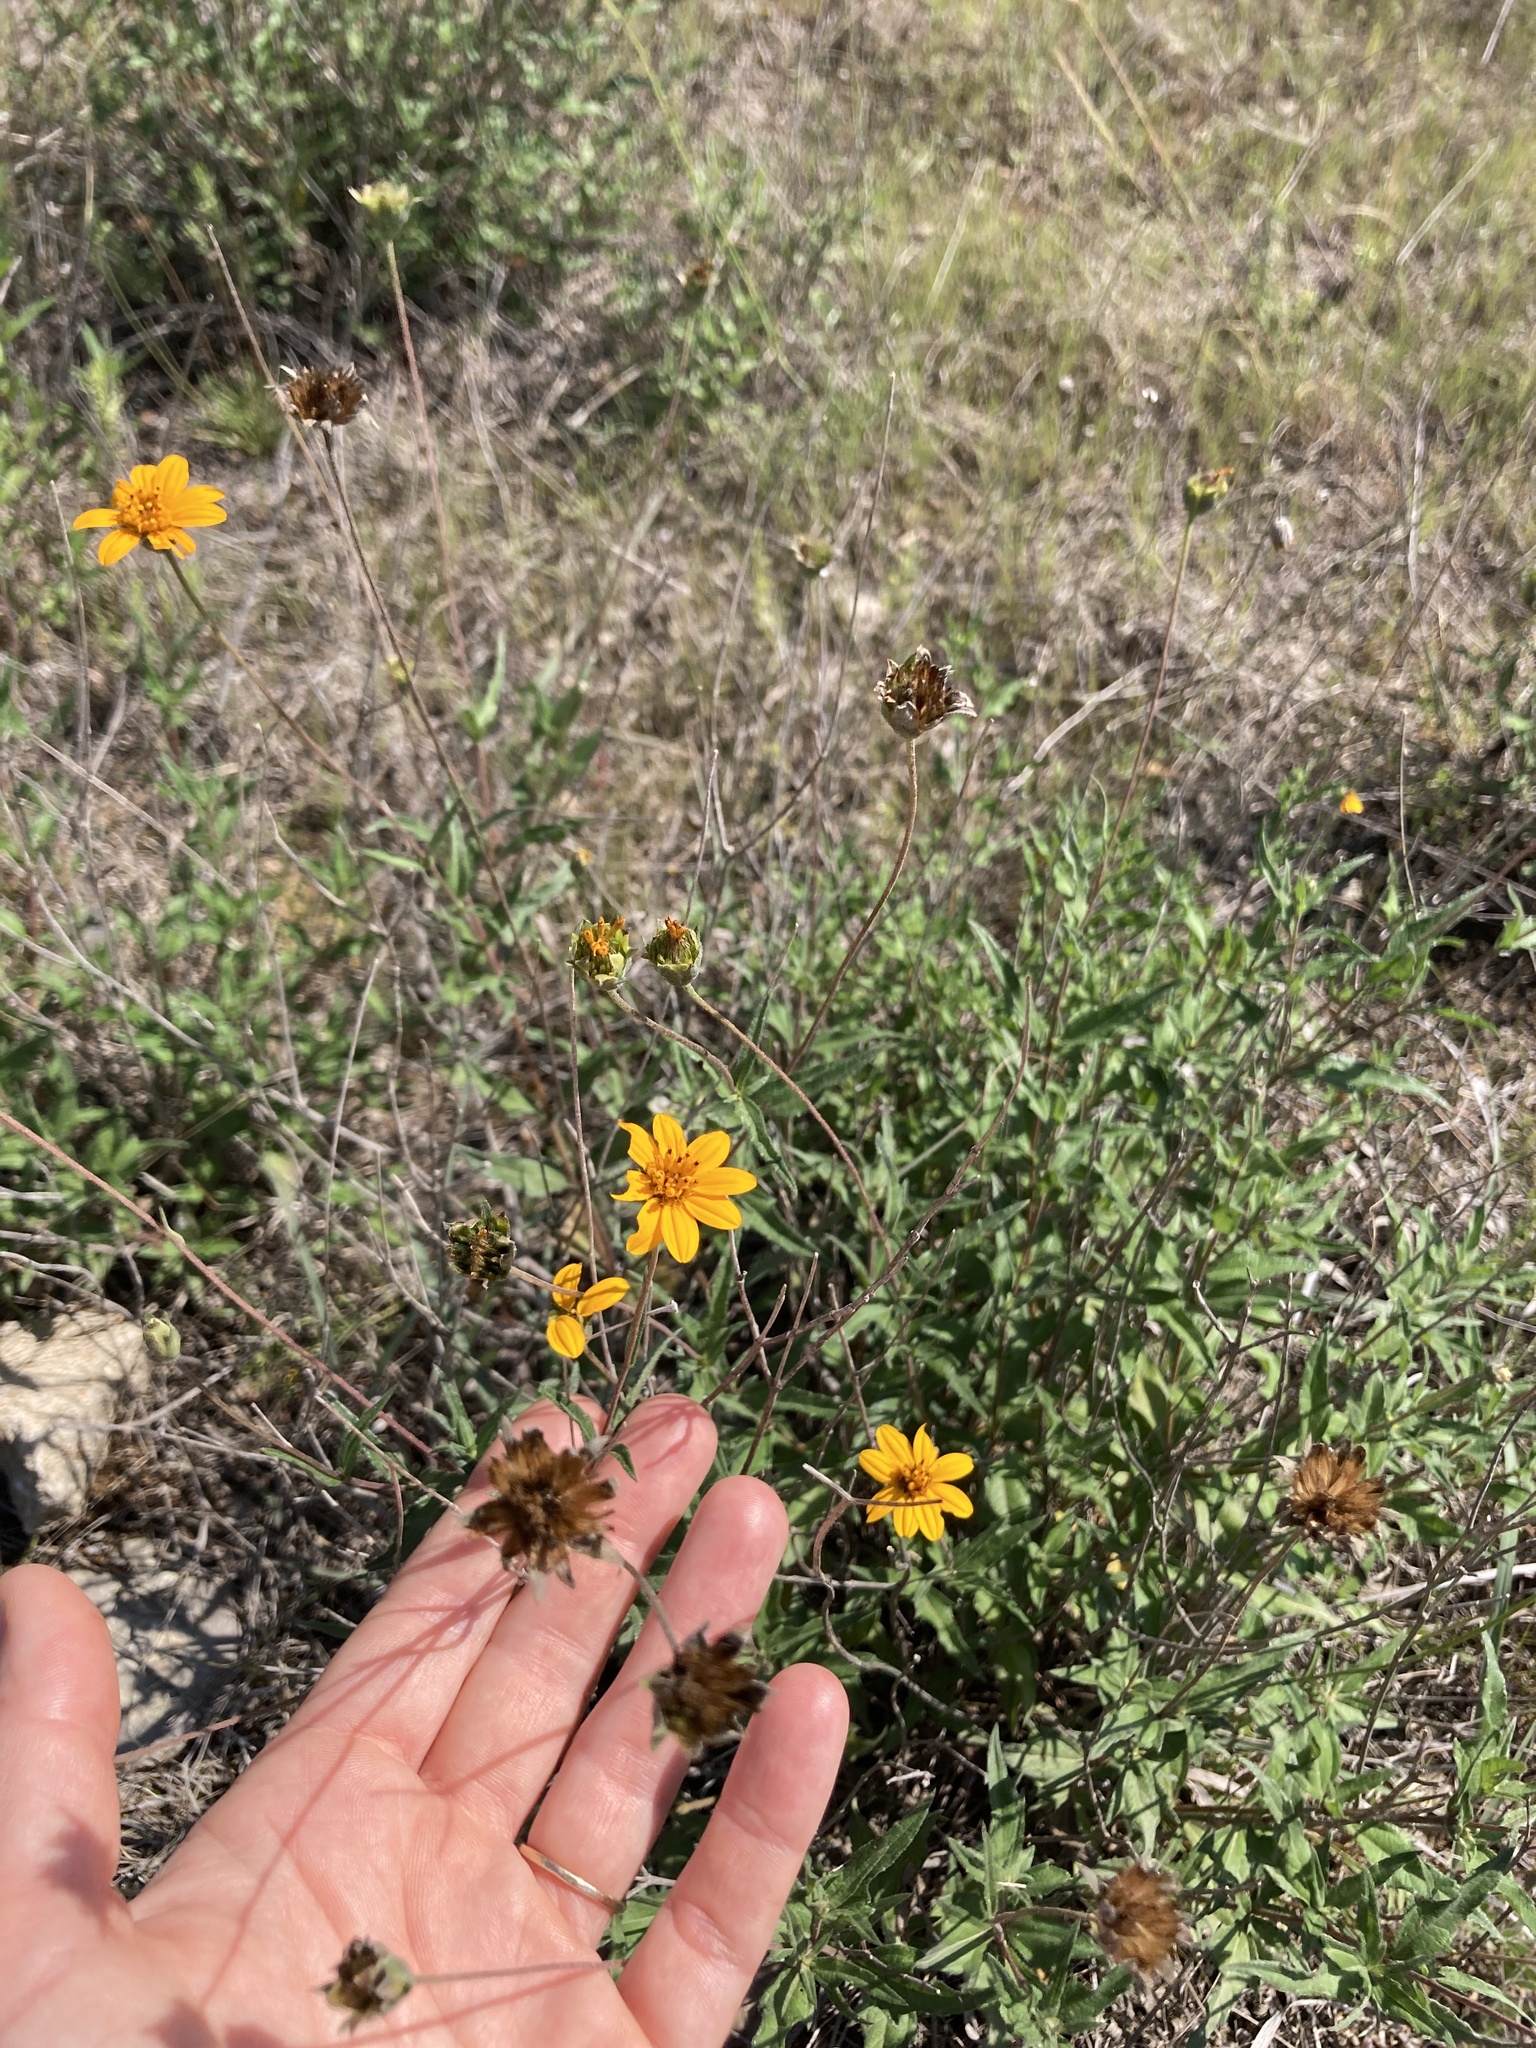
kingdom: Plantae
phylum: Tracheophyta
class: Magnoliopsida
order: Asterales
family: Asteraceae
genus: Wedelia
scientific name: Wedelia acapulcensis
